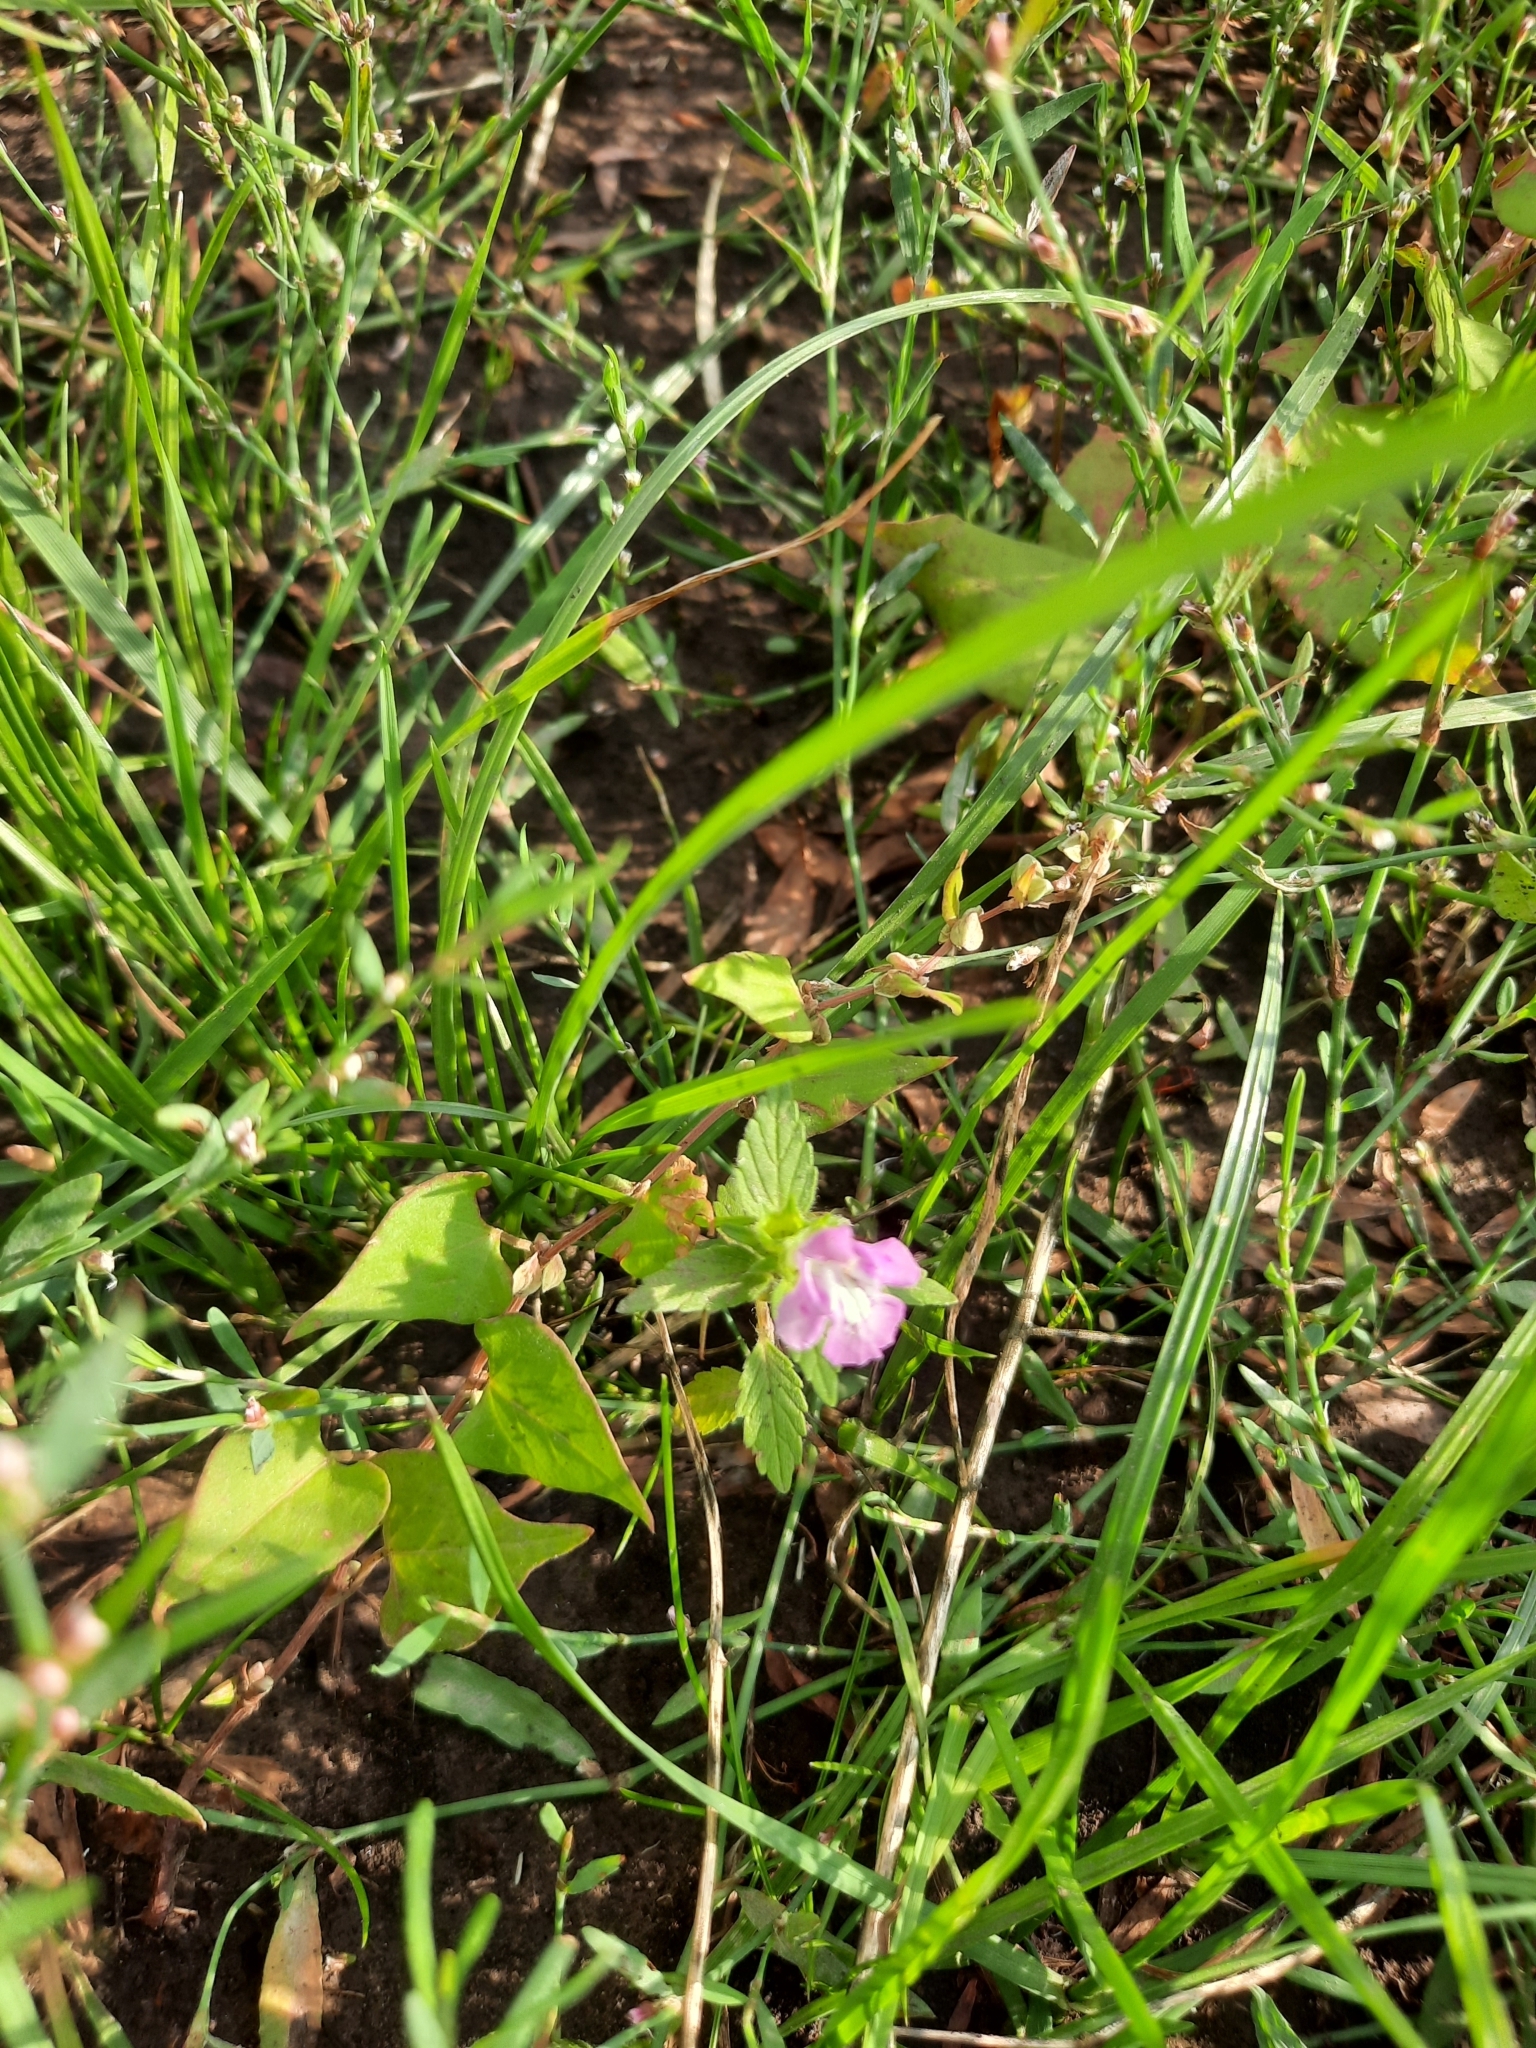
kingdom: Plantae
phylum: Tracheophyta
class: Magnoliopsida
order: Lamiales
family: Lamiaceae
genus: Galeopsis
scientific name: Galeopsis ladanum
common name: Broad-leaved hemp-nettle
